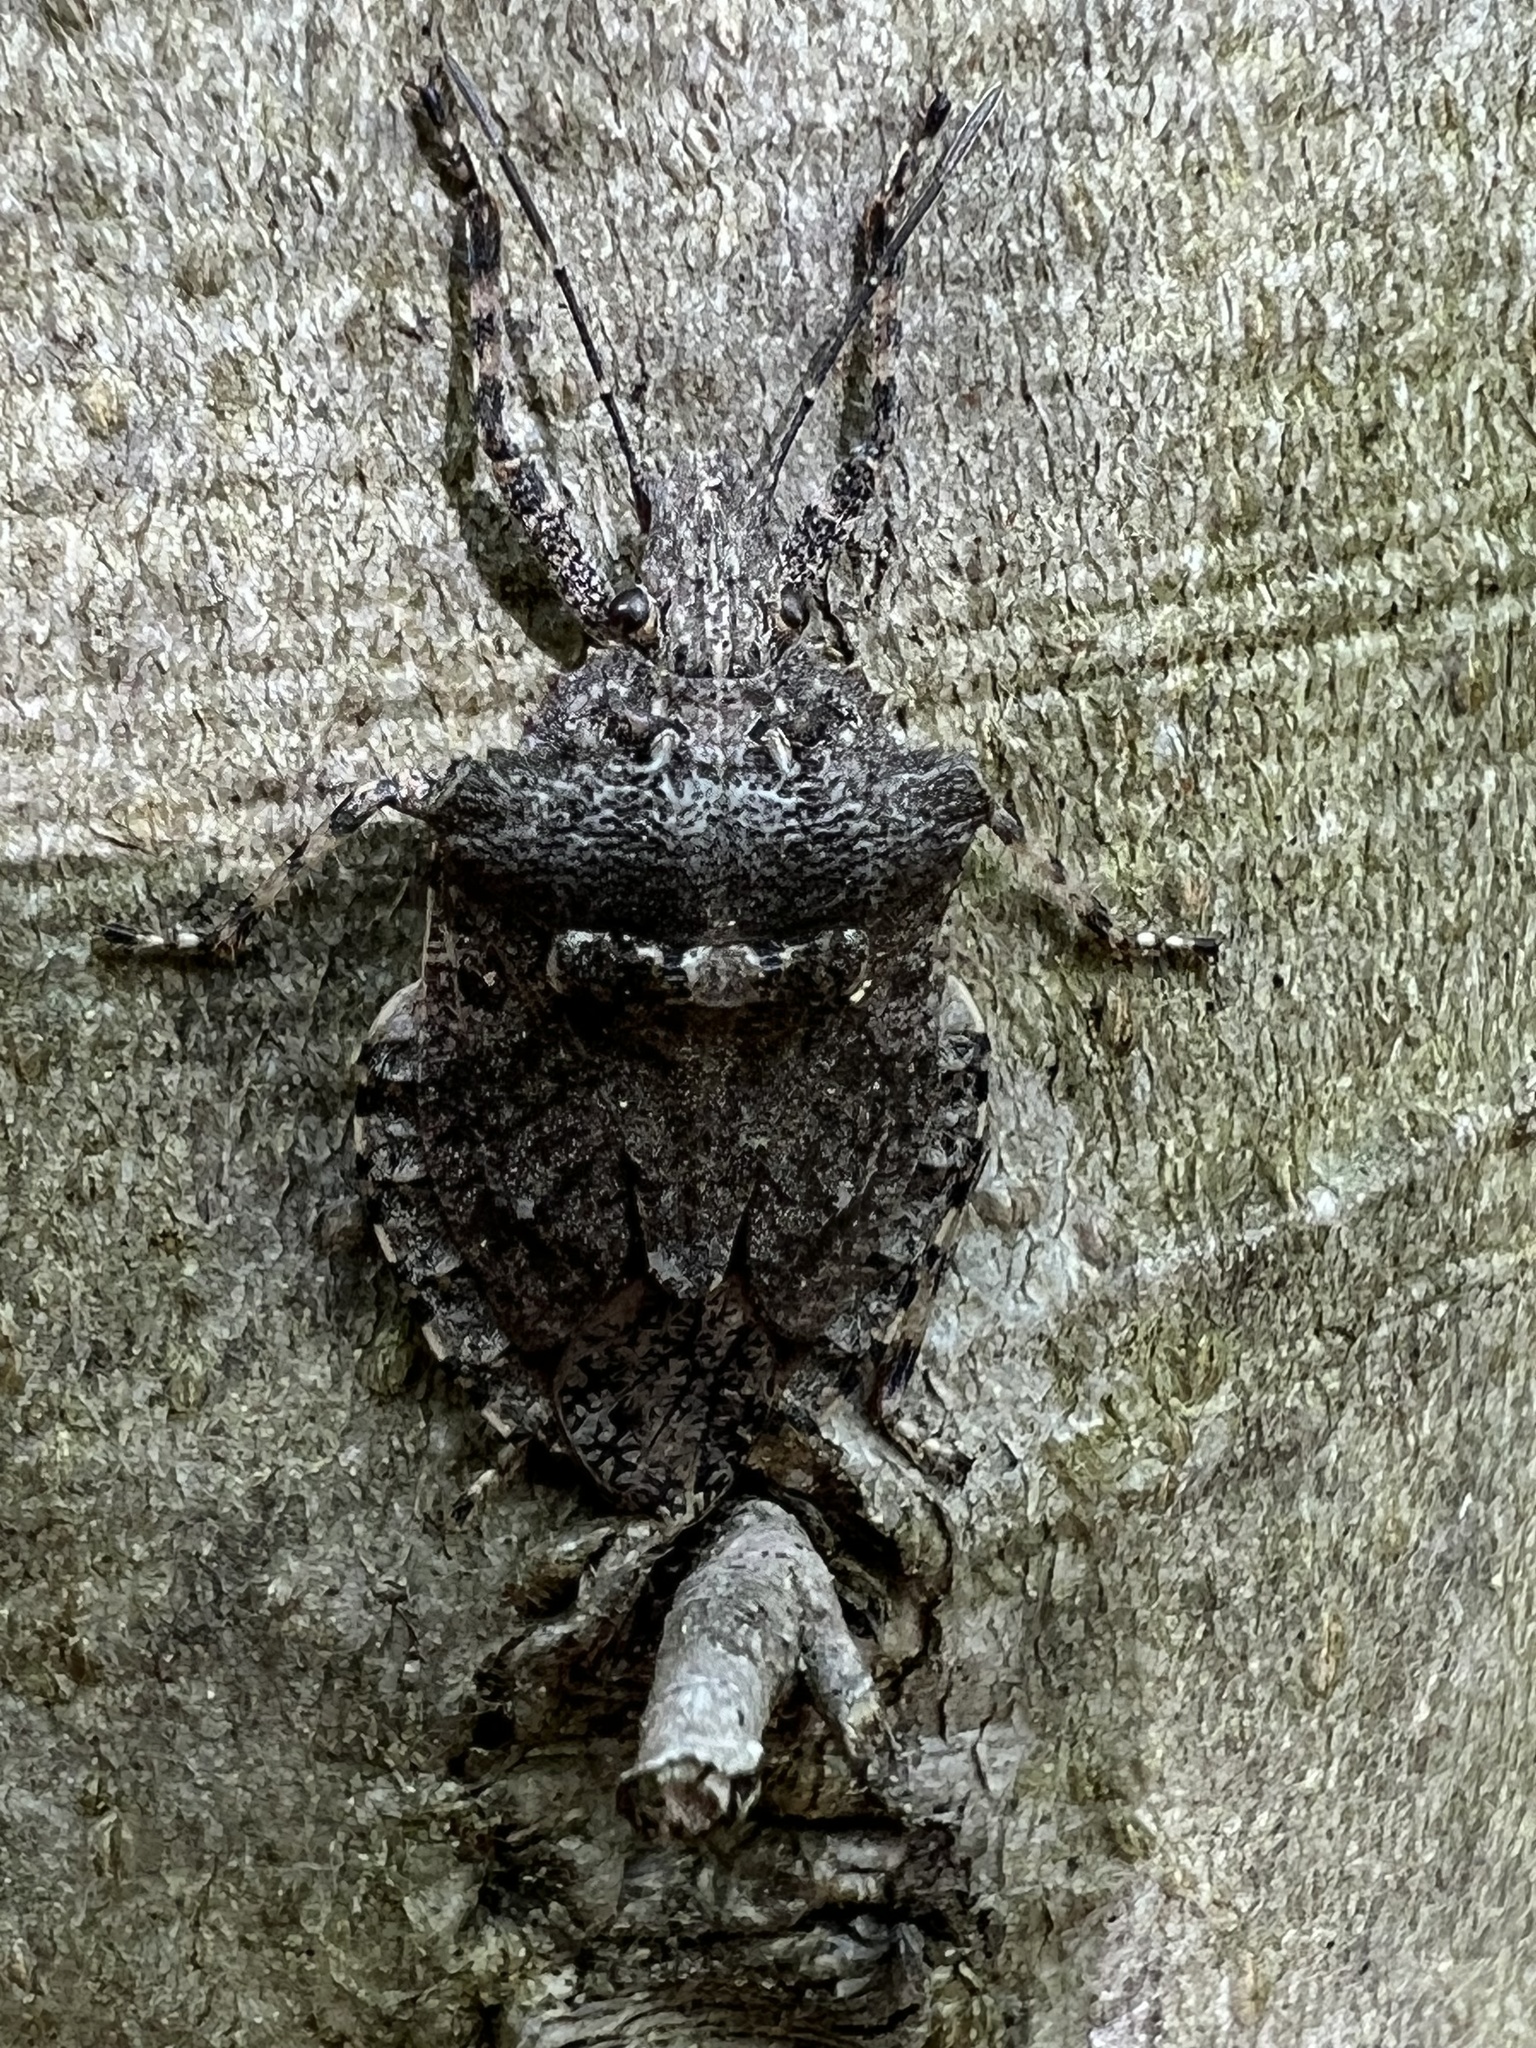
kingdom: Animalia
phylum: Arthropoda
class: Insecta
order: Hemiptera
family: Pentatomidae
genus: Brochymena
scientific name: Brochymena arborea
